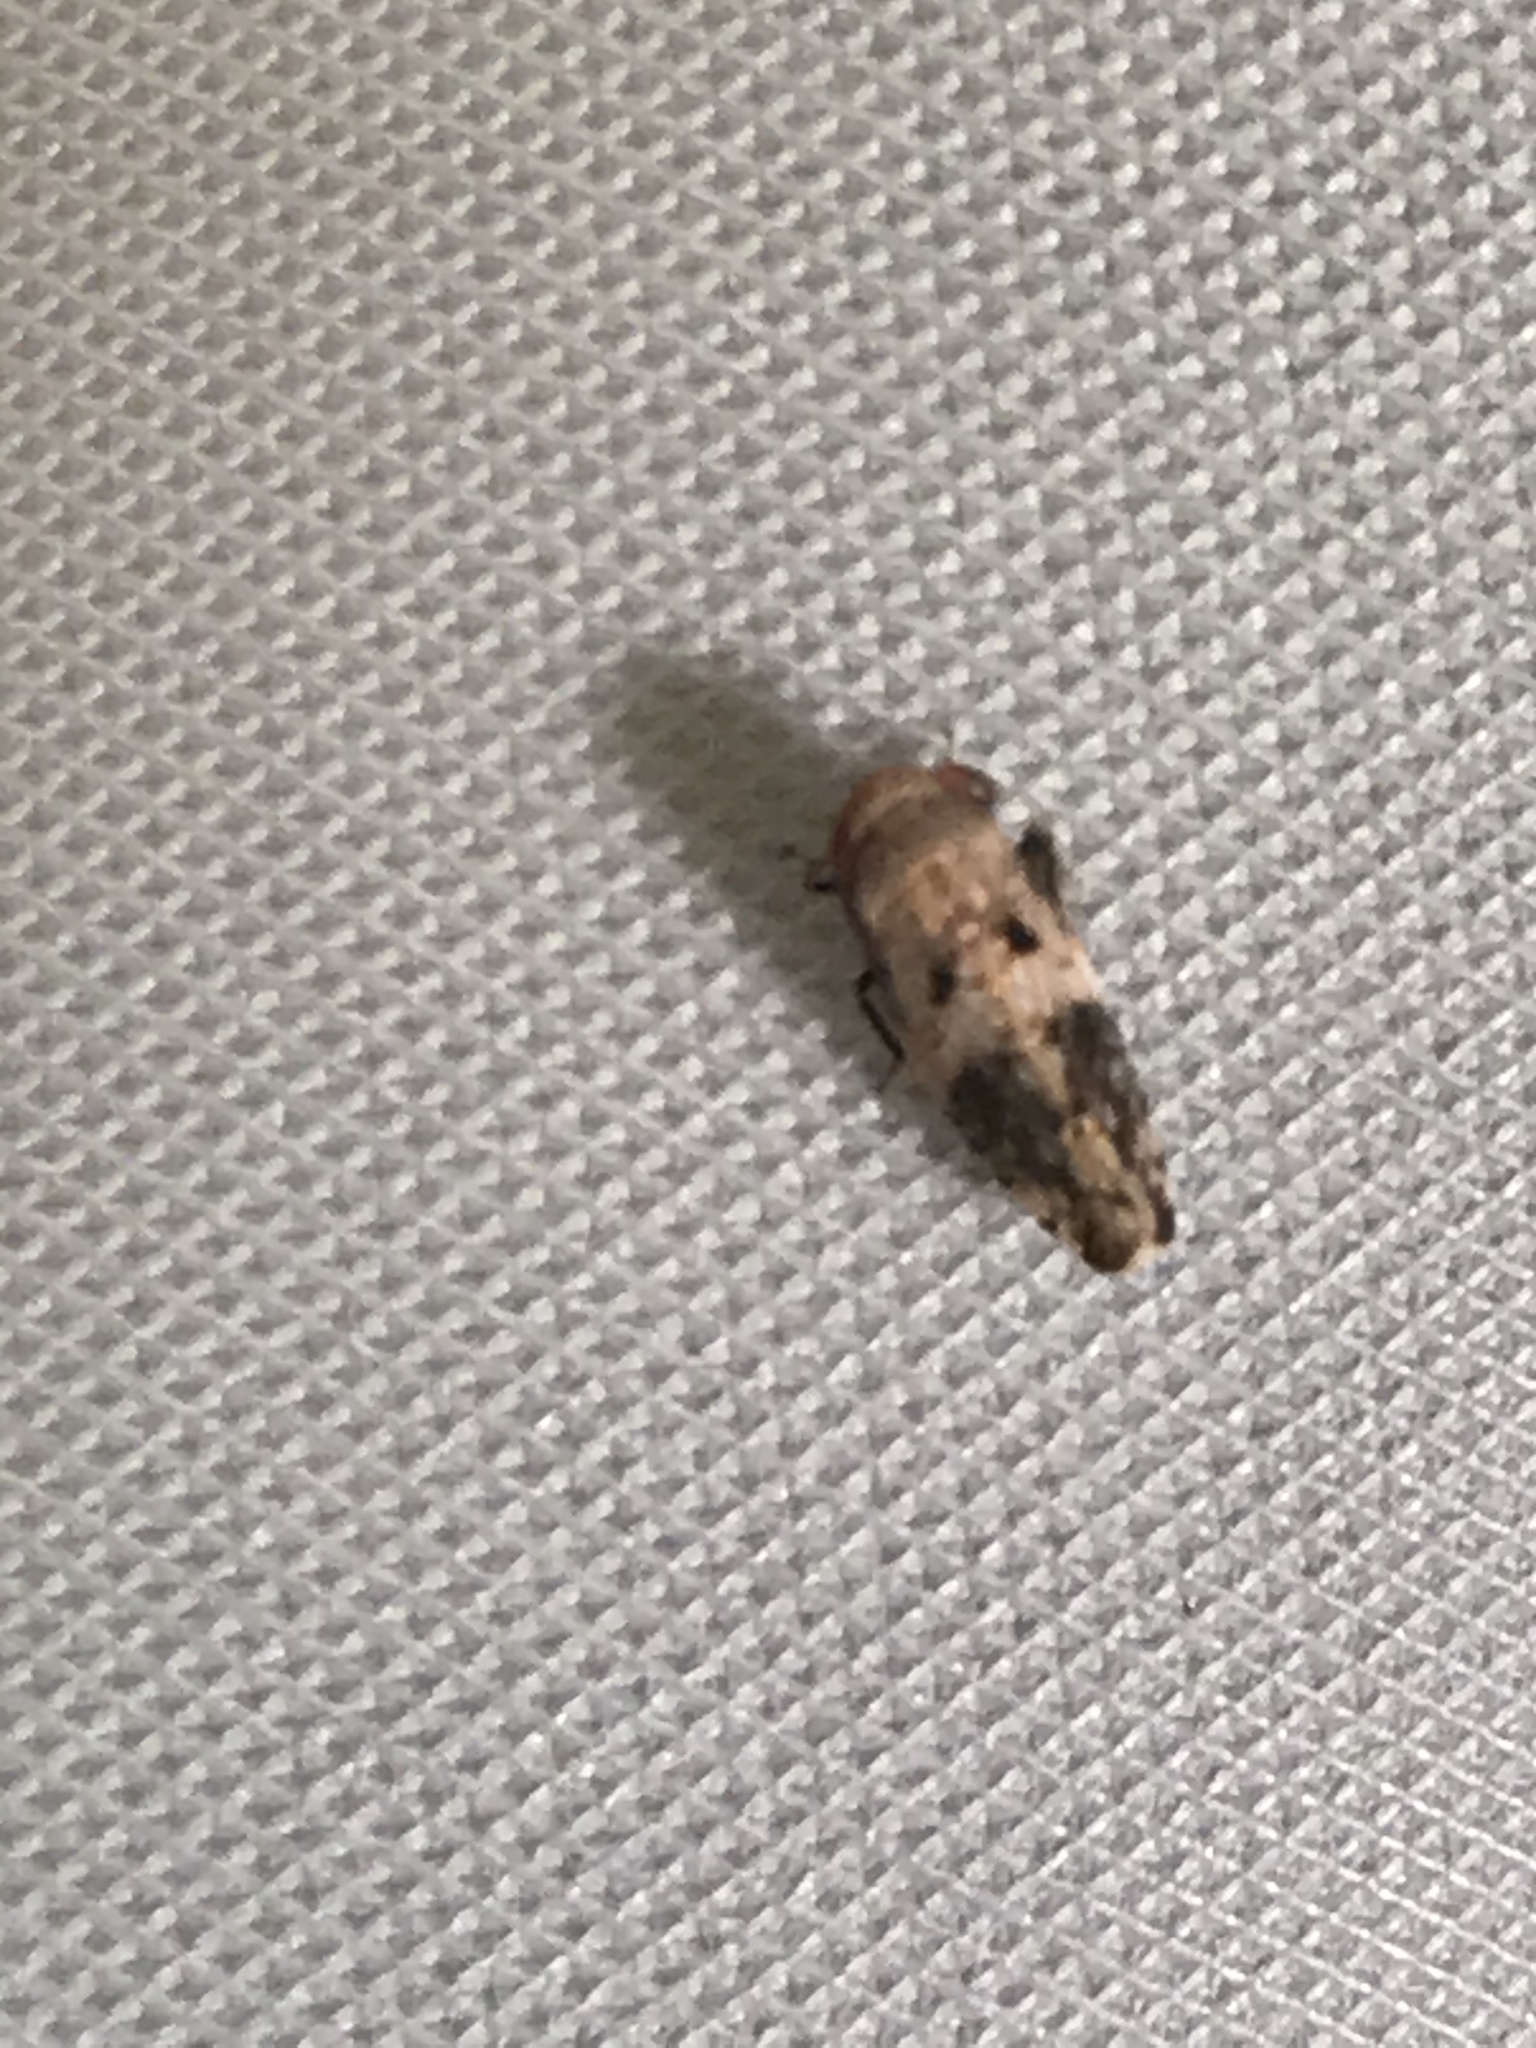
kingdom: Animalia
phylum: Arthropoda
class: Insecta
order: Hemiptera
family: Cicadellidae
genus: Menosoma
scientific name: Menosoma cinctum
